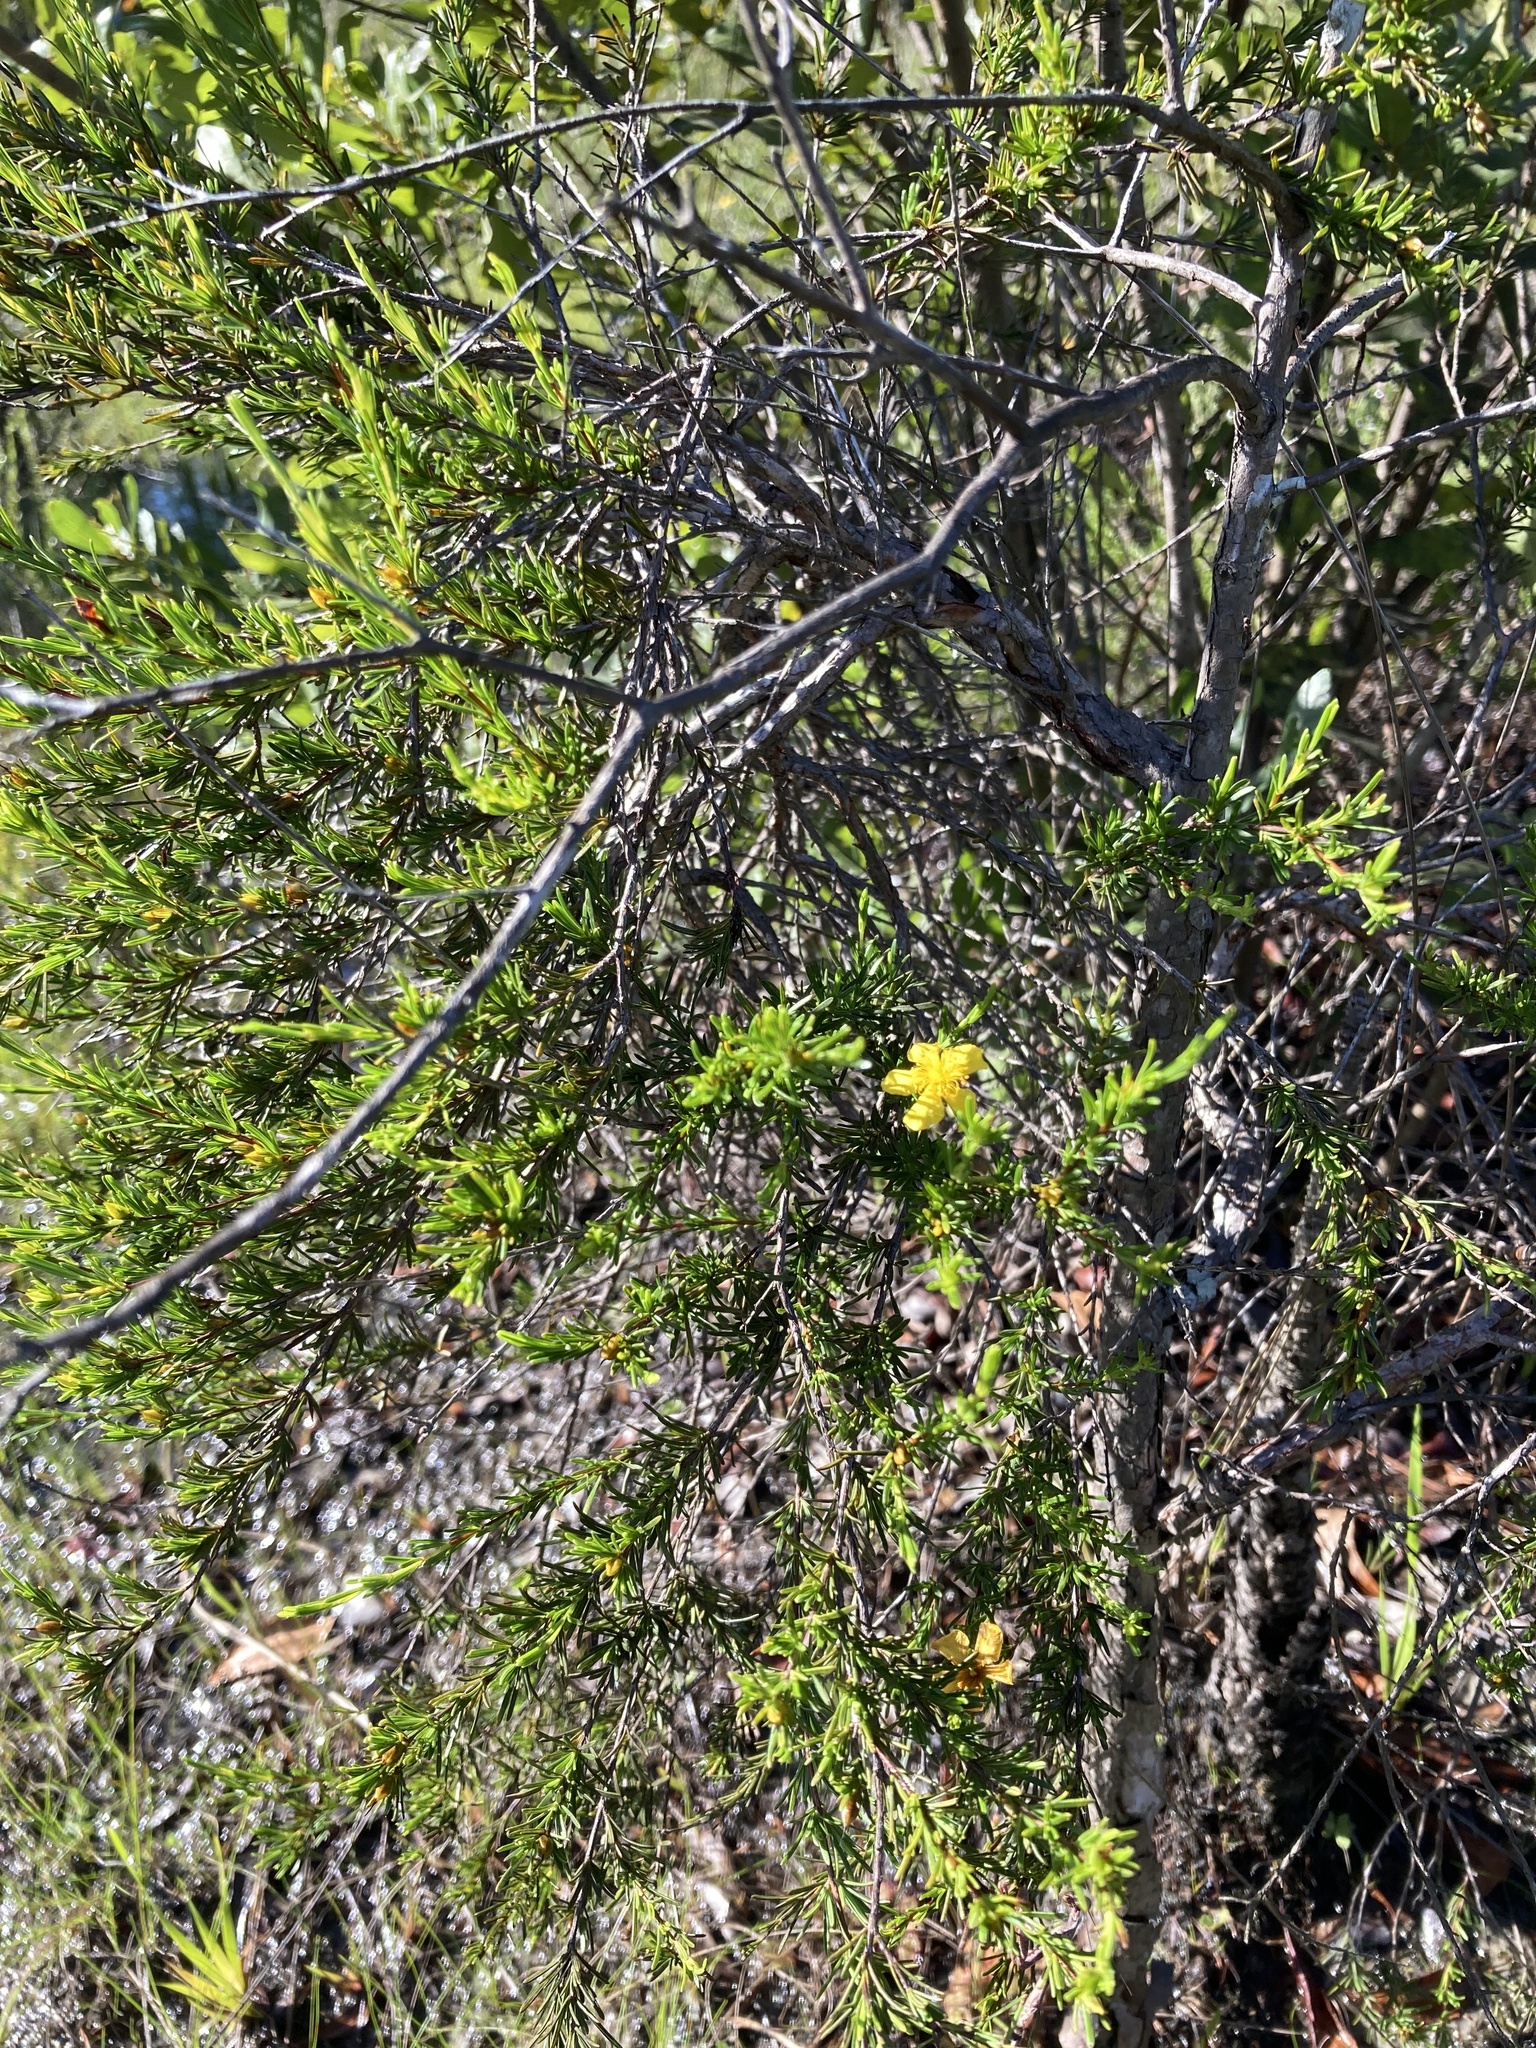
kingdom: Plantae
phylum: Tracheophyta
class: Magnoliopsida
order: Malpighiales
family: Hypericaceae
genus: Hypericum
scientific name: Hypericum fasciculatum
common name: Peelbark st. john's wort
